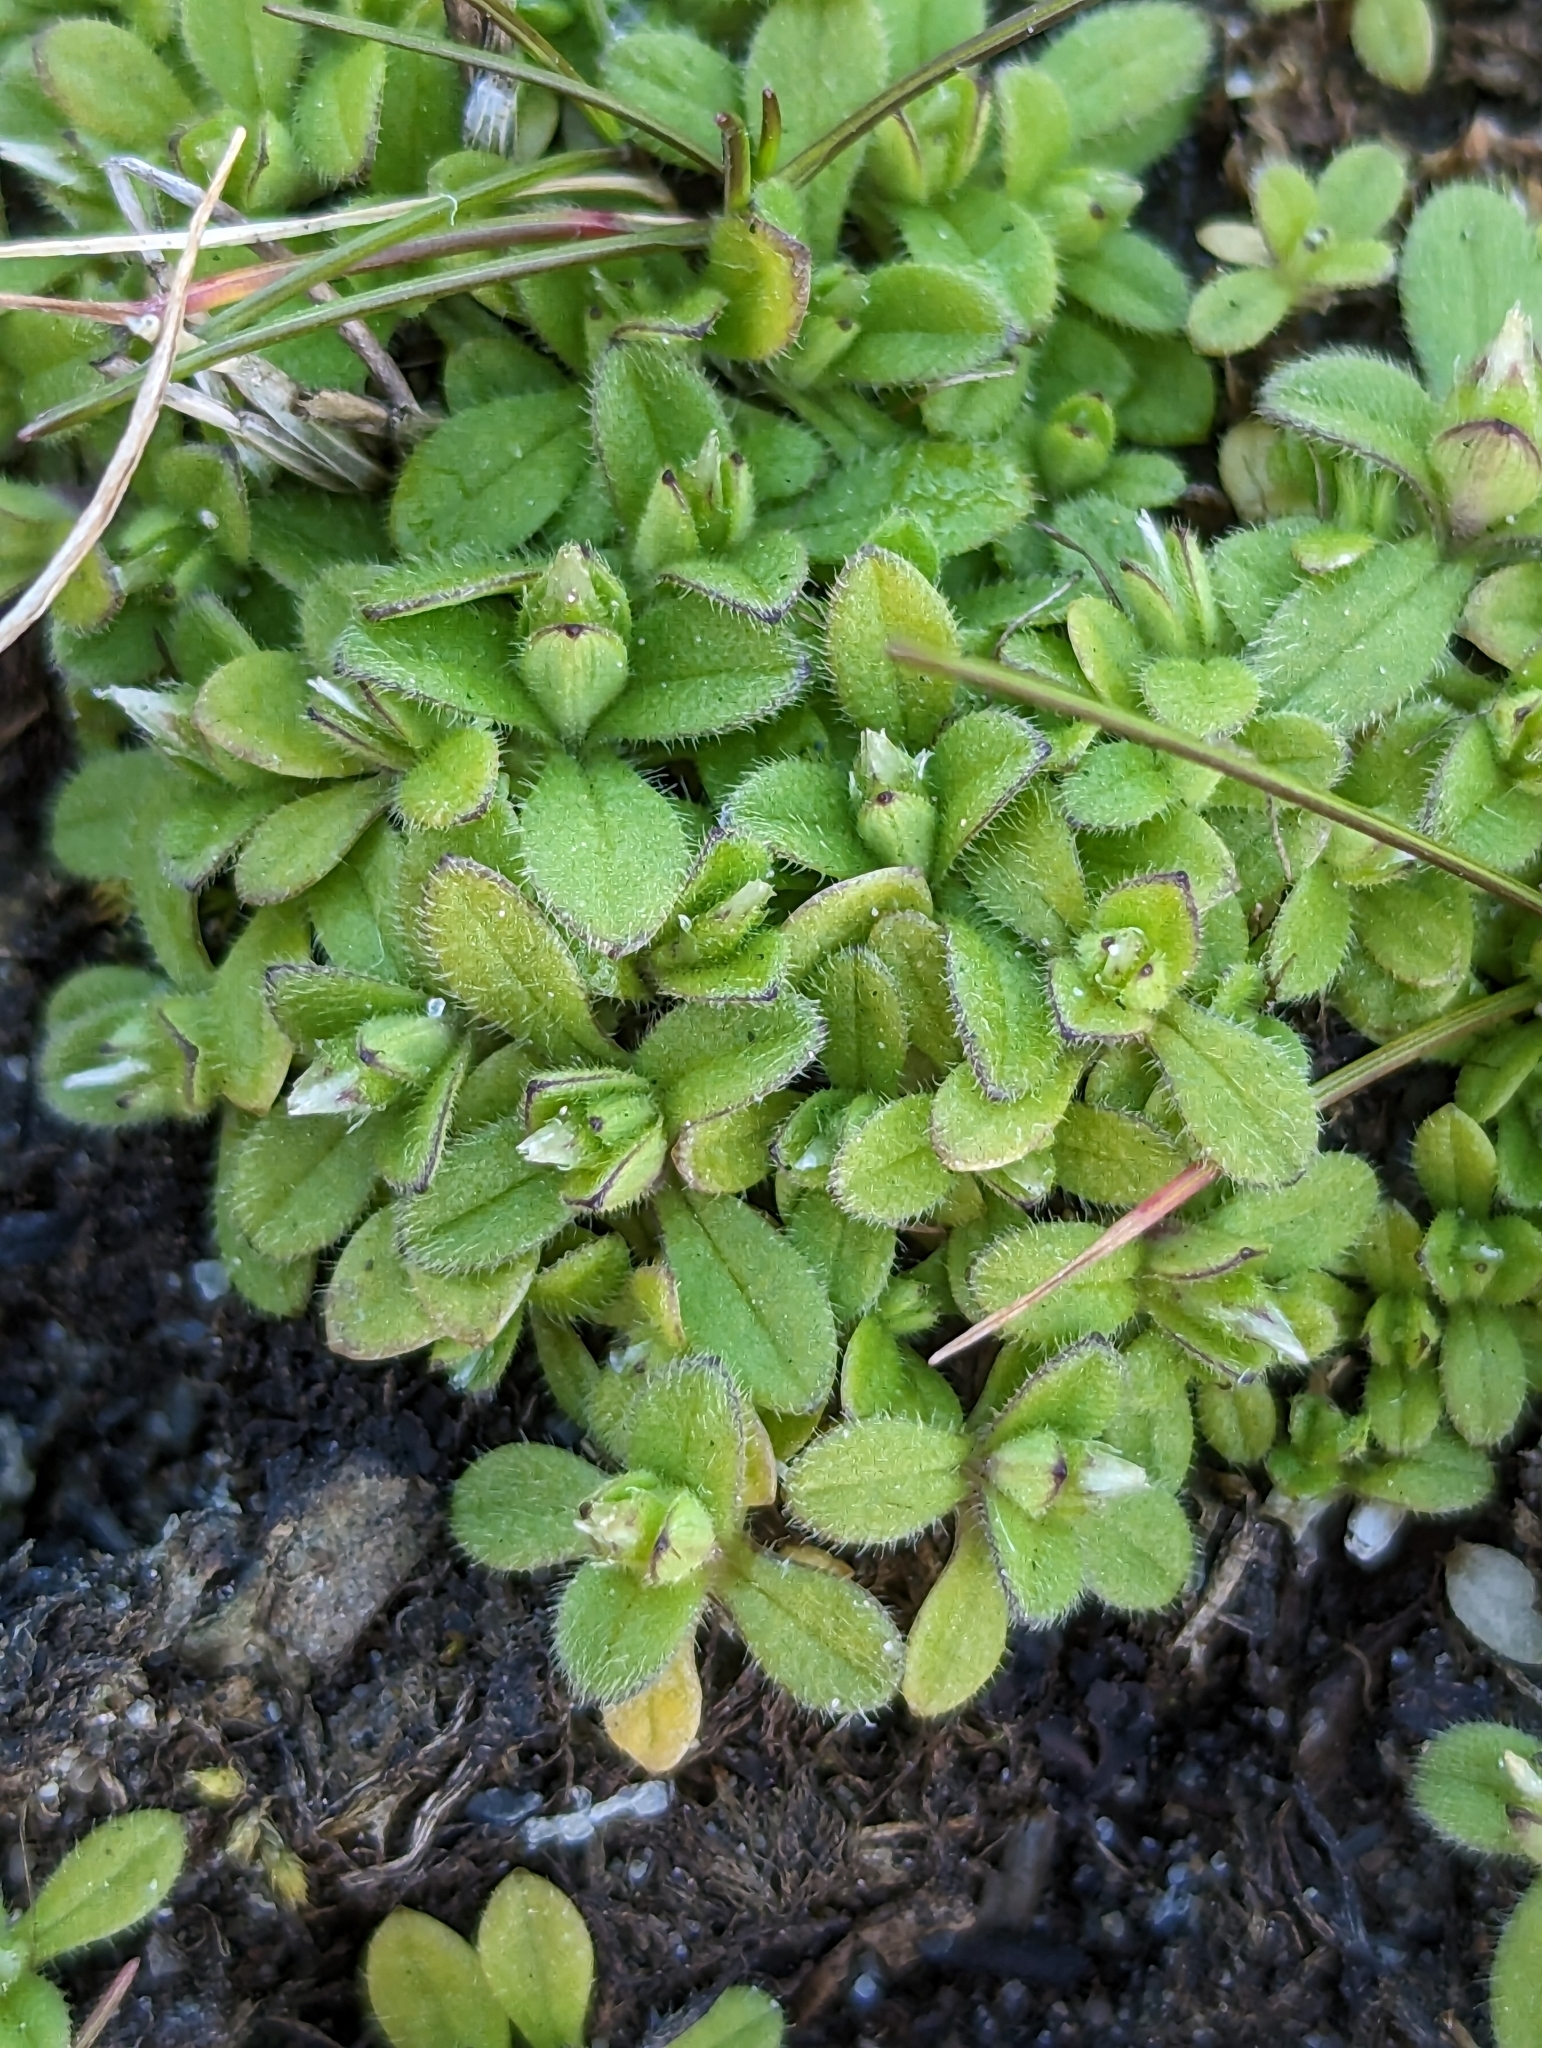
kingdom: Plantae
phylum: Tracheophyta
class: Magnoliopsida
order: Caryophyllales
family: Caryophyllaceae
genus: Cerastium
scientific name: Cerastium glomeratum
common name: Sticky chickweed
